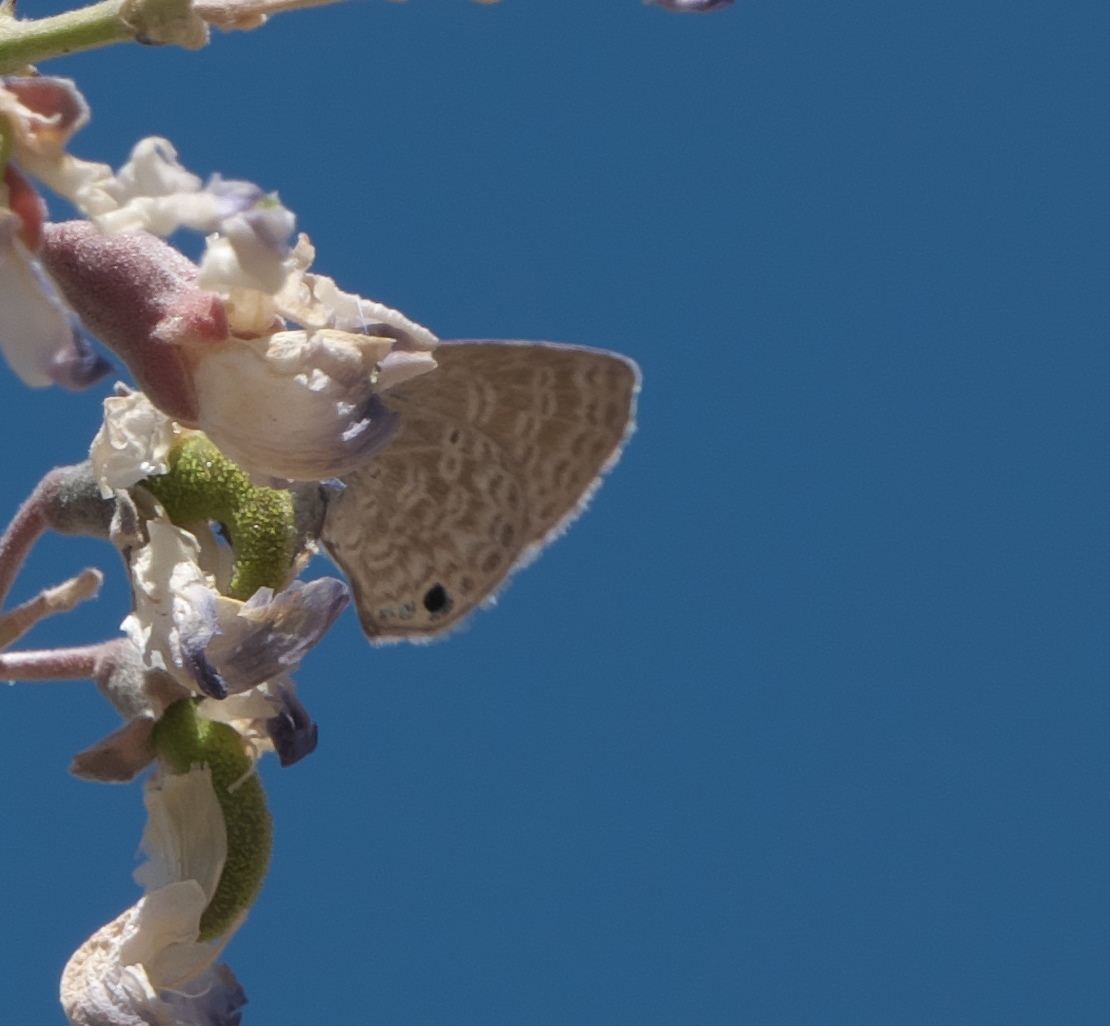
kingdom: Animalia
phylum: Arthropoda
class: Insecta
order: Lepidoptera
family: Lycaenidae
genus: Hemiargus
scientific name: Hemiargus ceraunus
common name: Ceraunus blue
